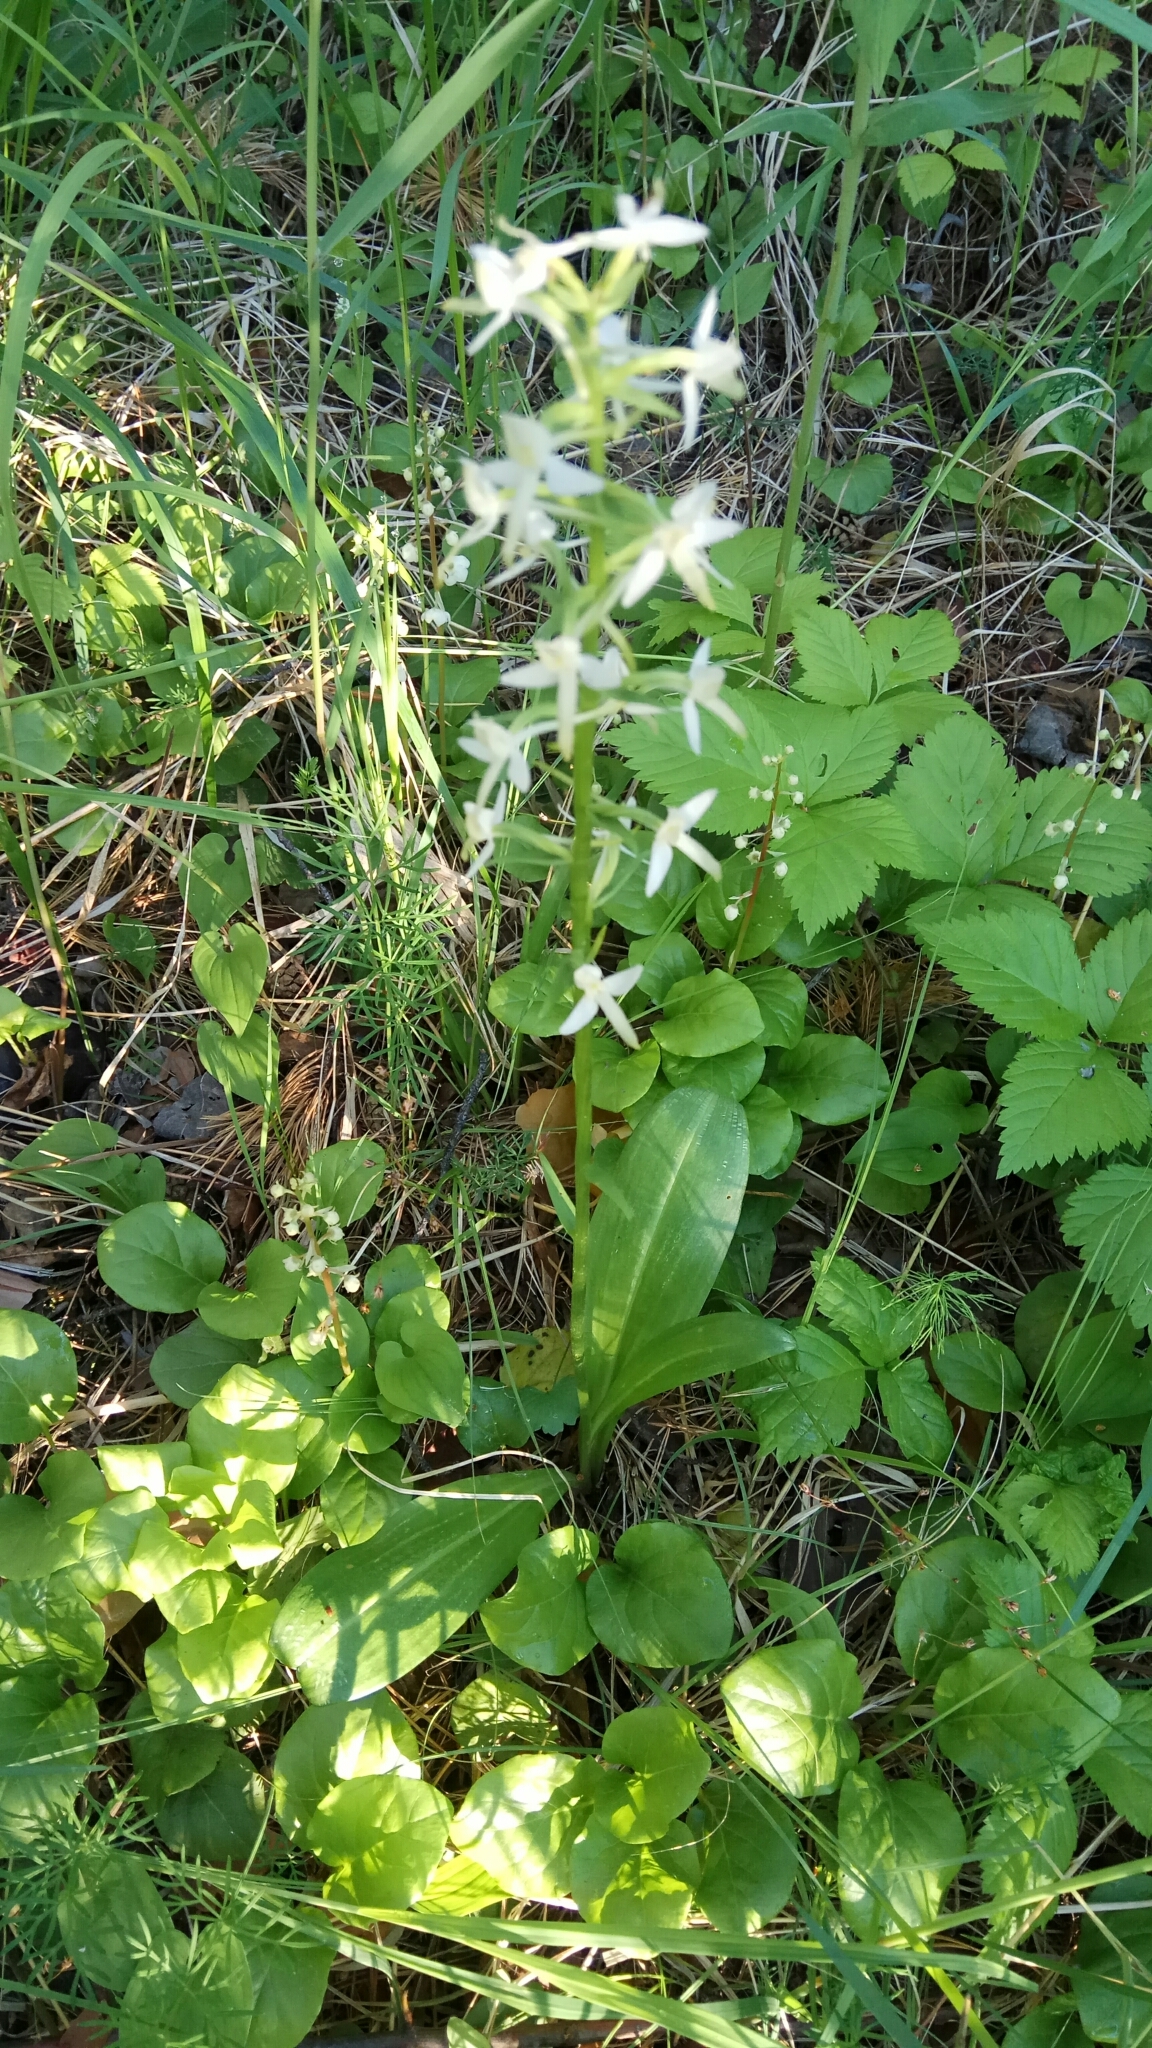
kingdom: Plantae
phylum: Tracheophyta
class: Liliopsida
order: Asparagales
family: Orchidaceae
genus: Platanthera
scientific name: Platanthera bifolia
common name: Lesser butterfly-orchid
